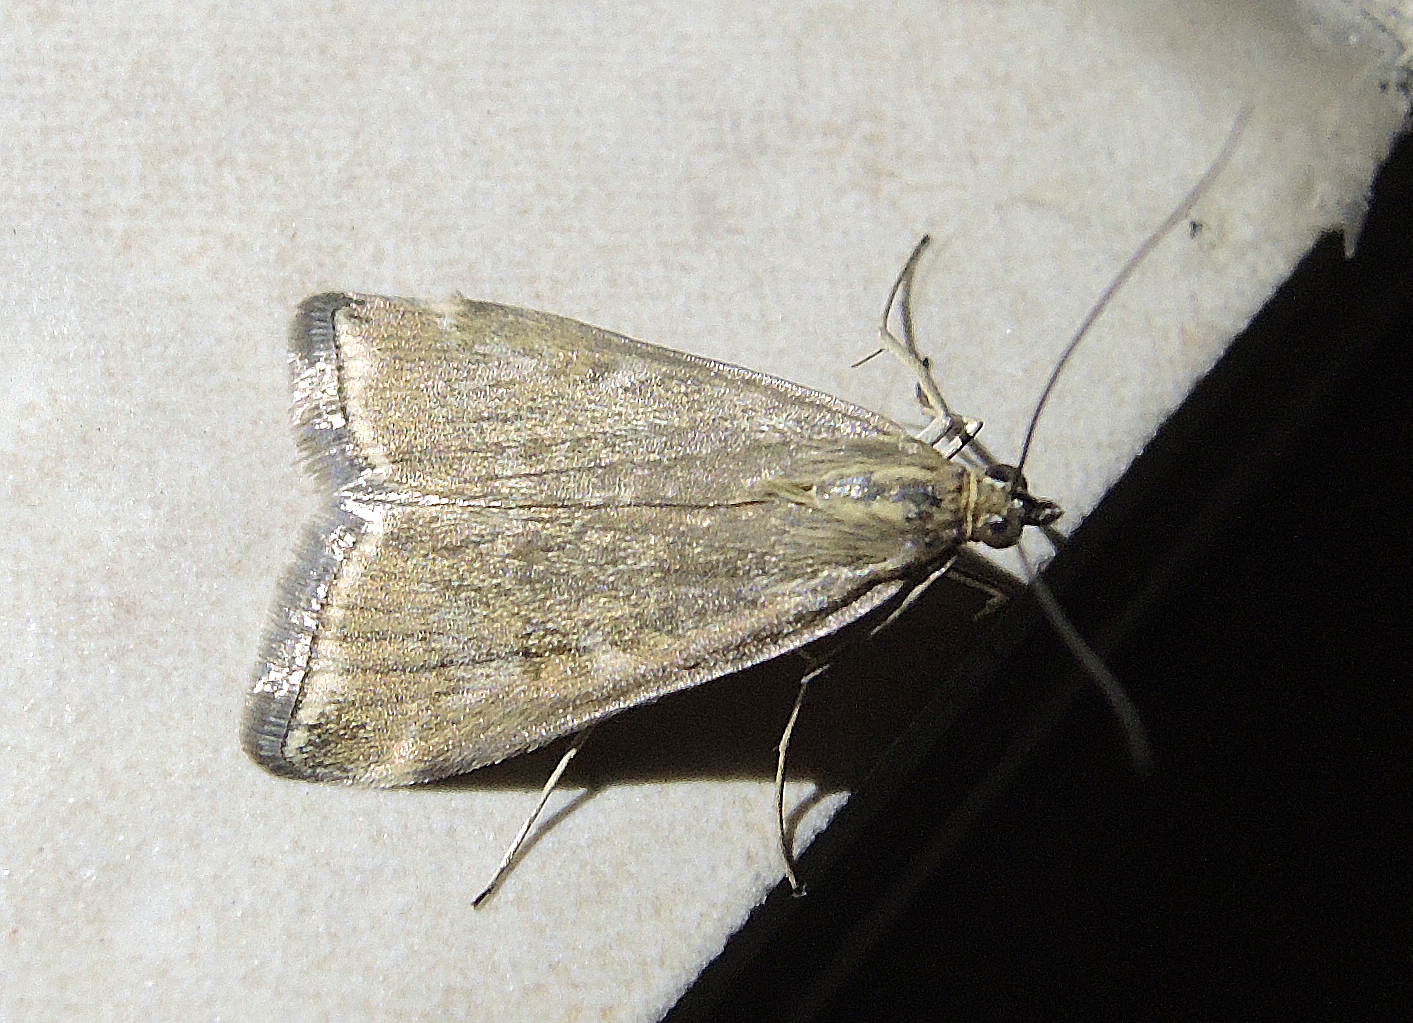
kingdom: Animalia
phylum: Arthropoda
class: Insecta
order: Lepidoptera
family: Crambidae
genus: Loxostege
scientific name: Loxostege sticticalis
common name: Crambid moth
